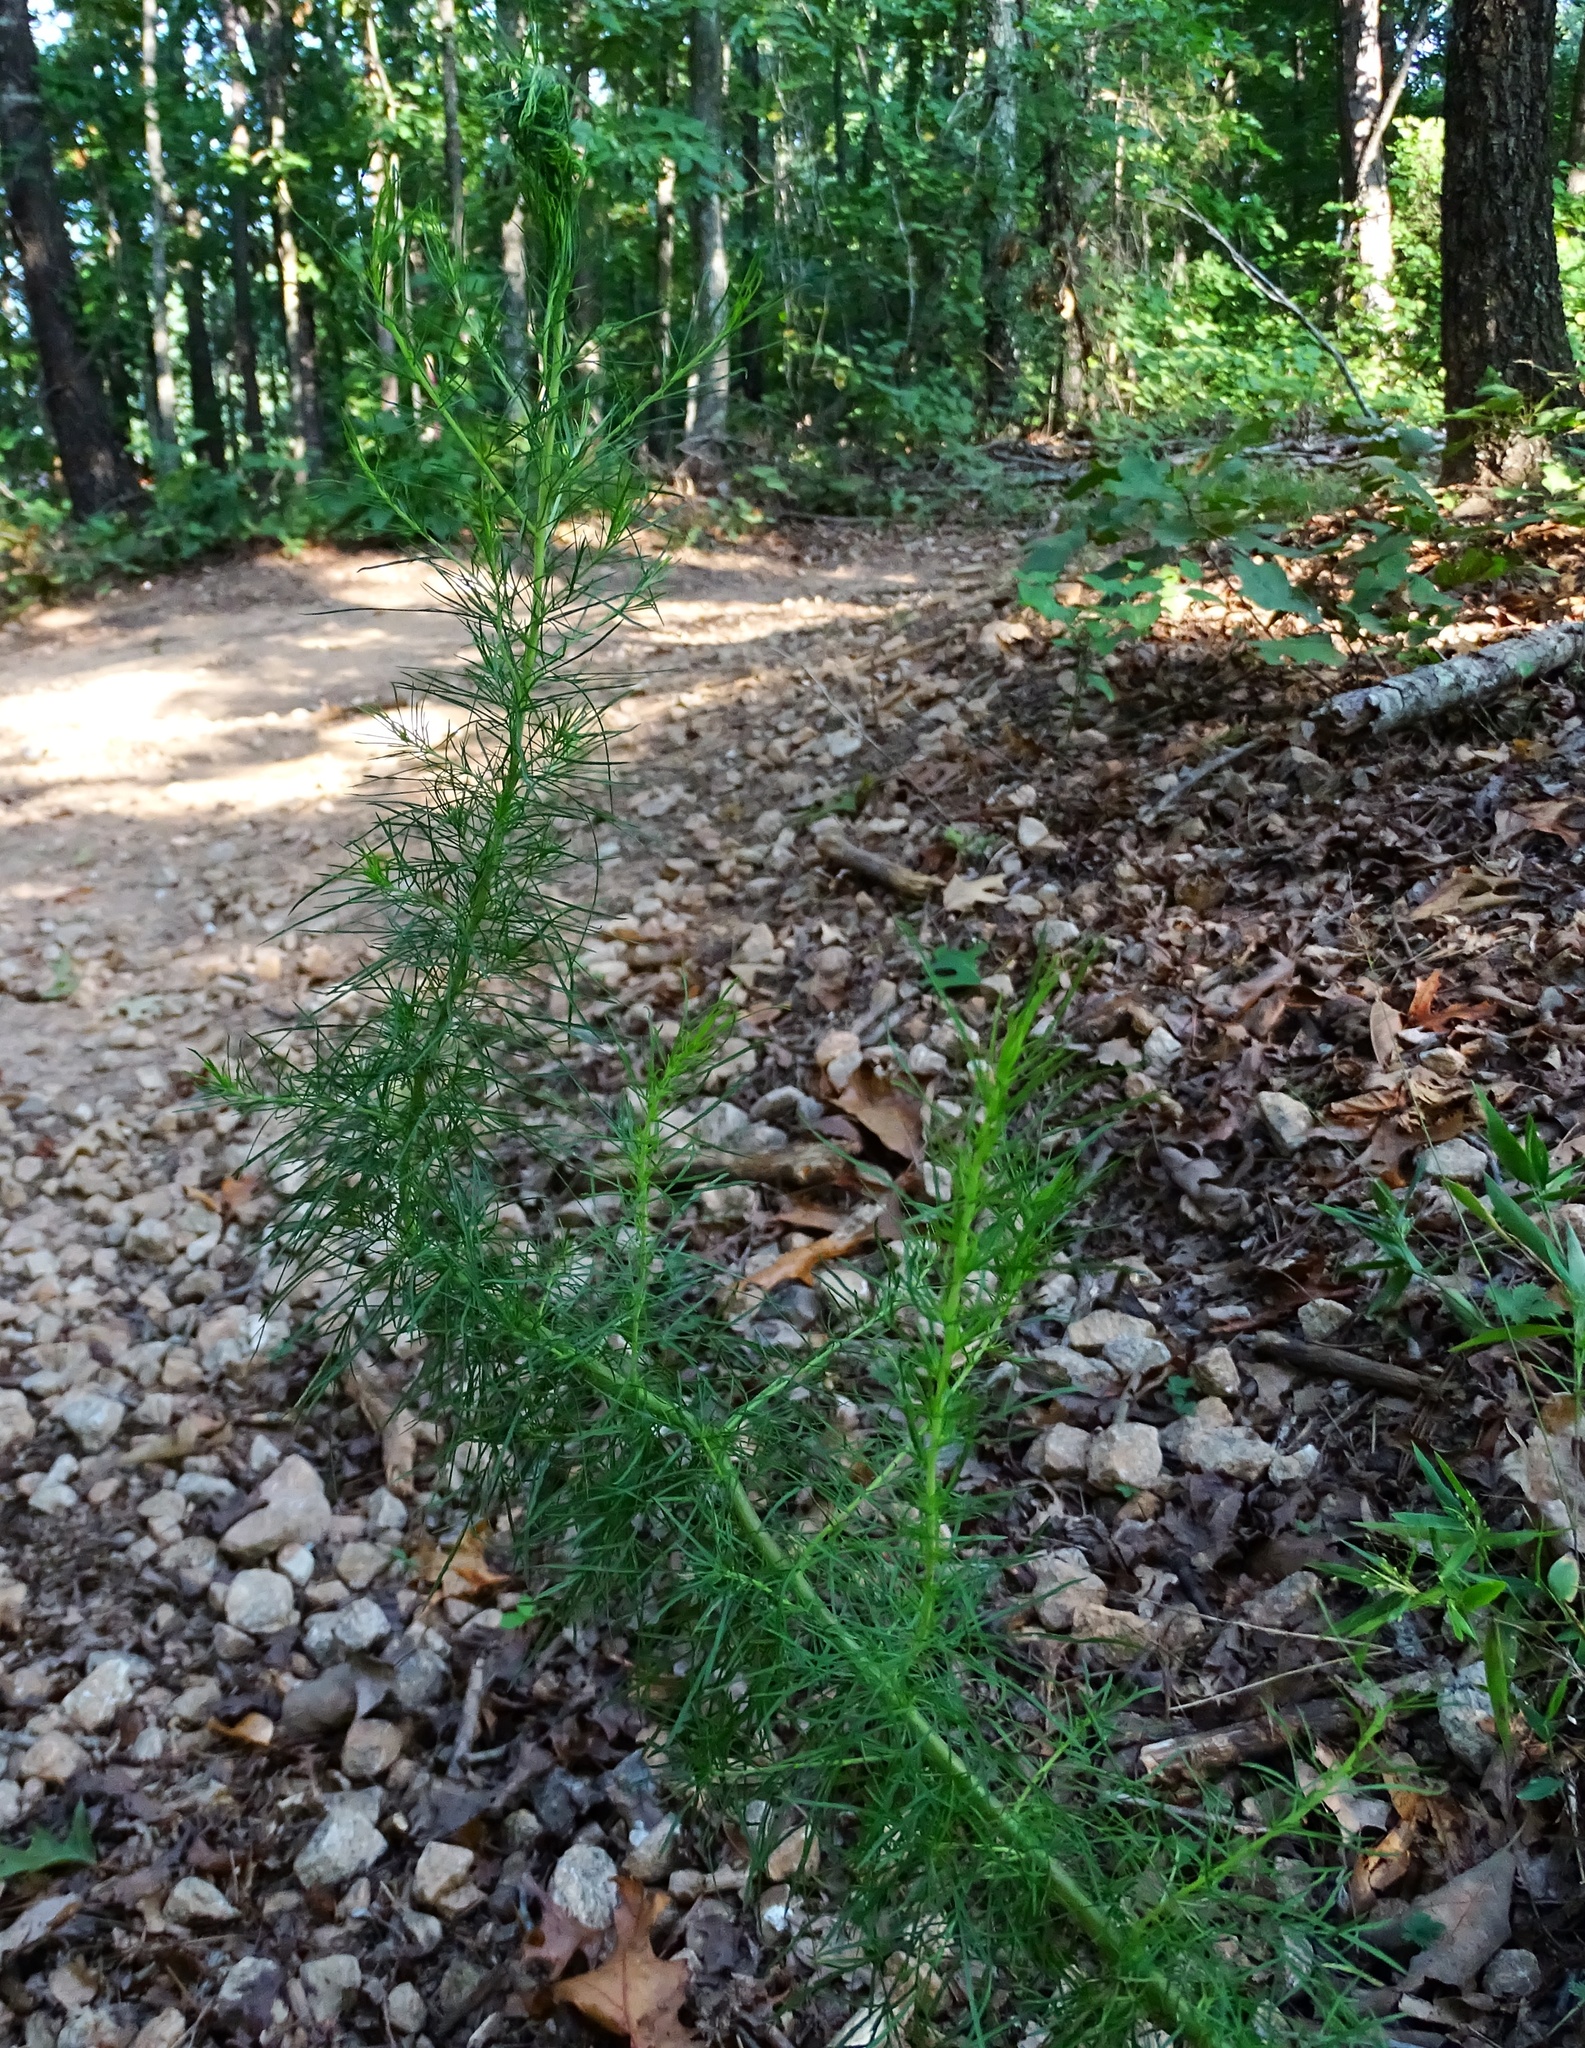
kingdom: Plantae
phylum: Tracheophyta
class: Magnoliopsida
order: Asterales
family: Asteraceae
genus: Eupatorium
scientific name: Eupatorium capillifolium
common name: Dog-fennel
